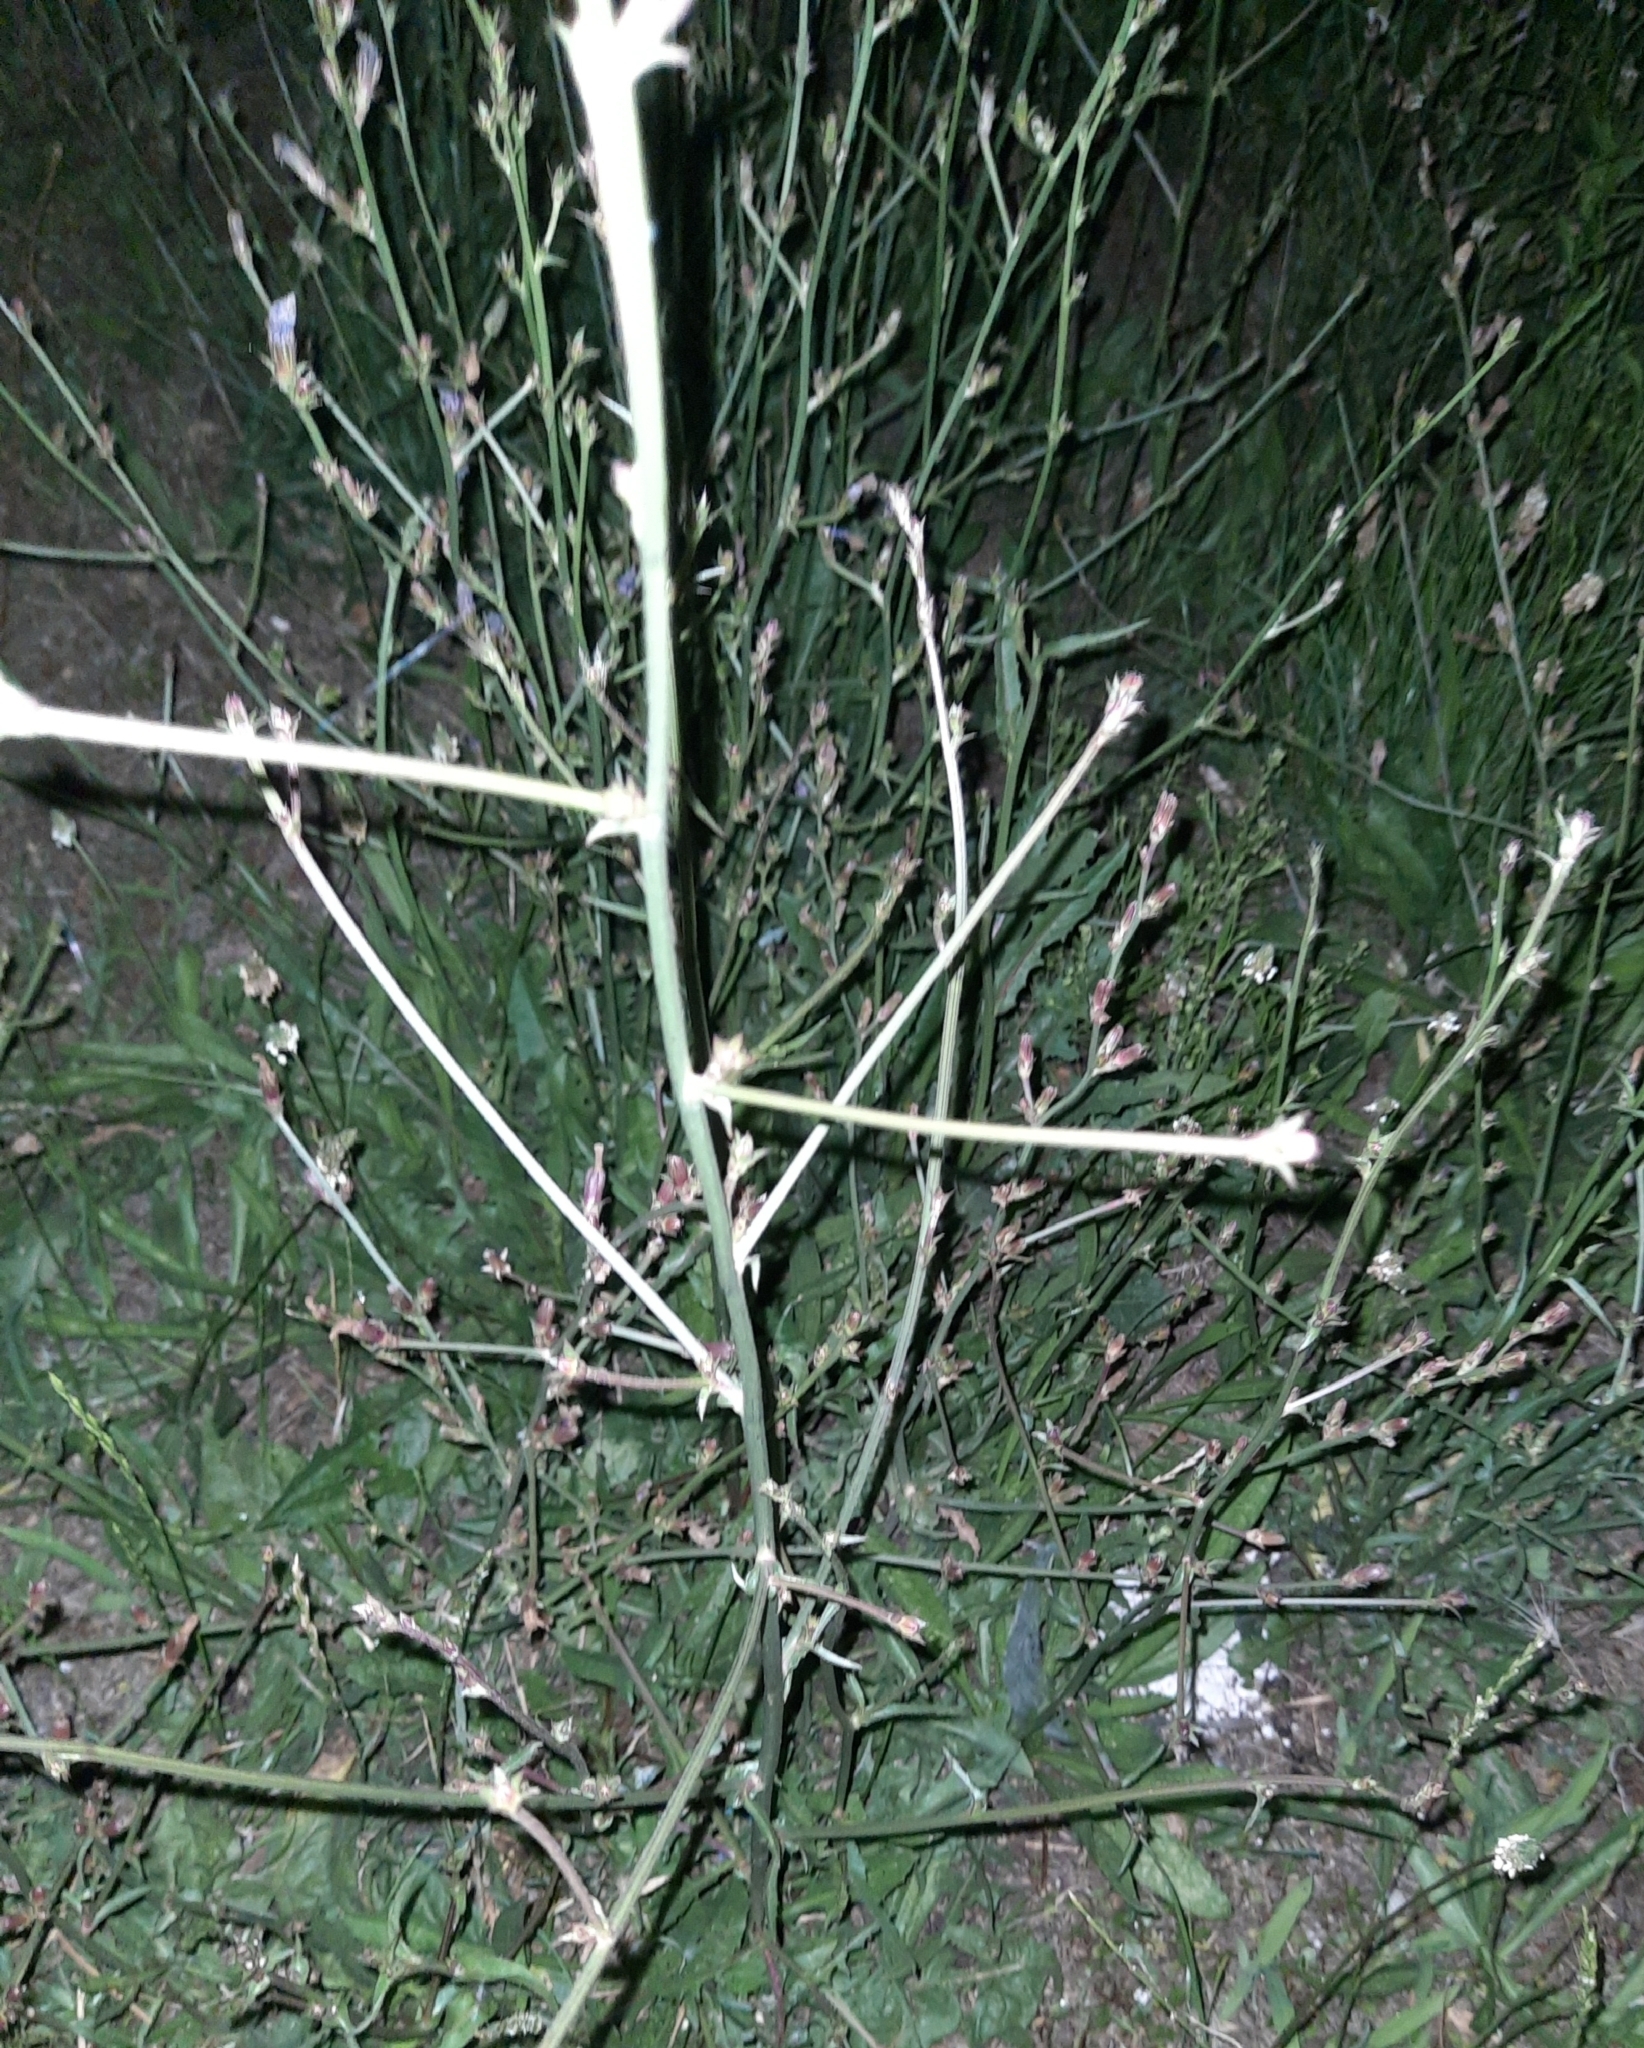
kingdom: Plantae
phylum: Tracheophyta
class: Magnoliopsida
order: Asterales
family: Asteraceae
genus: Cichorium
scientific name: Cichorium intybus
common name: Chicory
